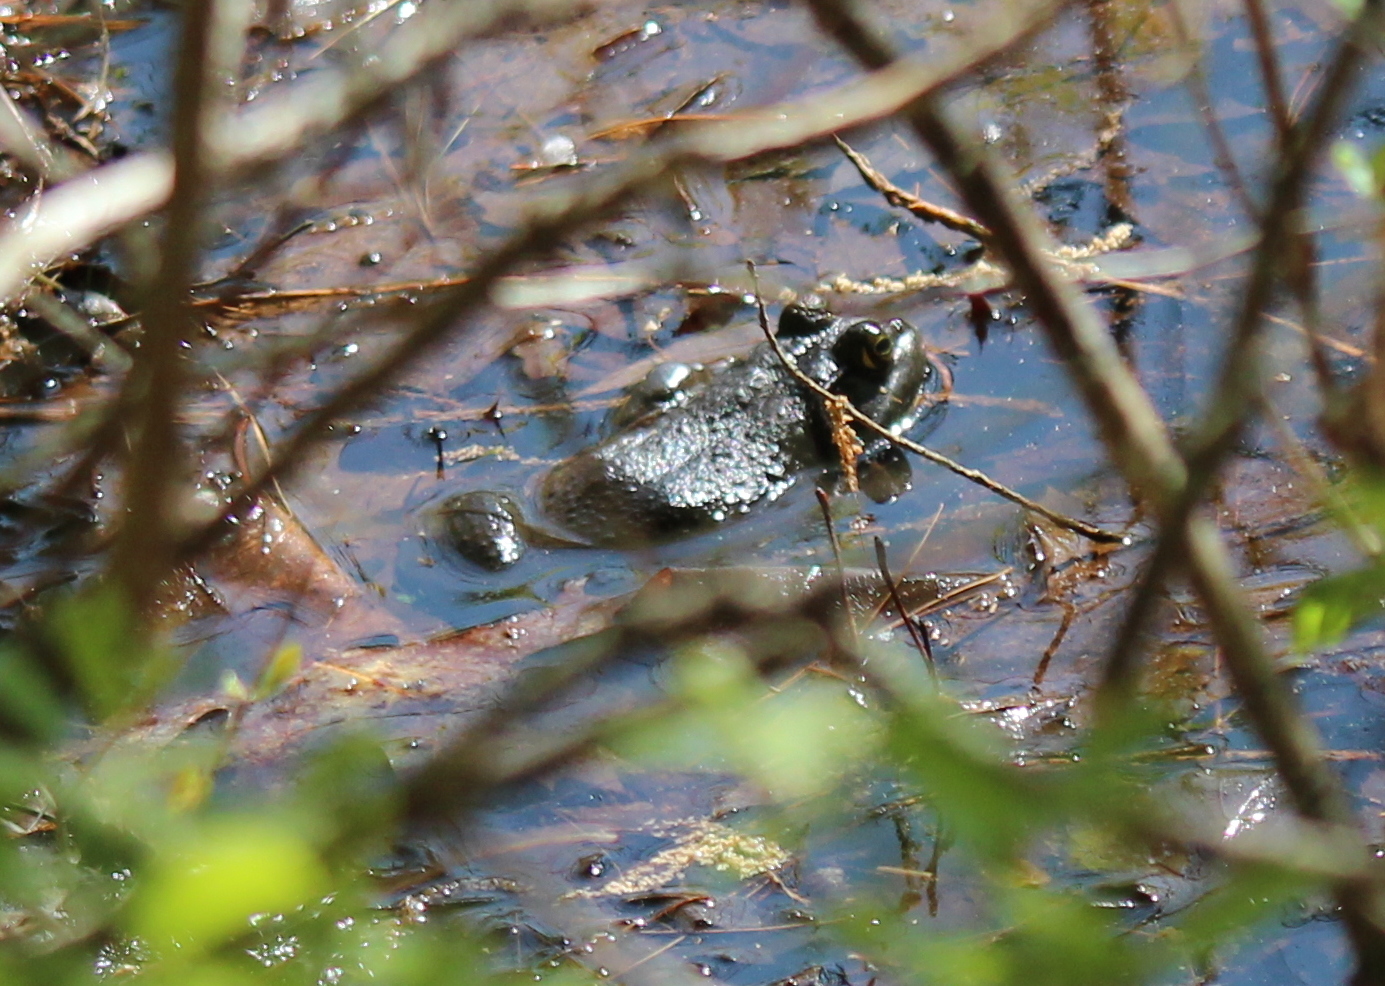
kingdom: Animalia
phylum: Chordata
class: Amphibia
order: Anura
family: Ranidae
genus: Lithobates
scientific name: Lithobates catesbeianus
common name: American bullfrog
